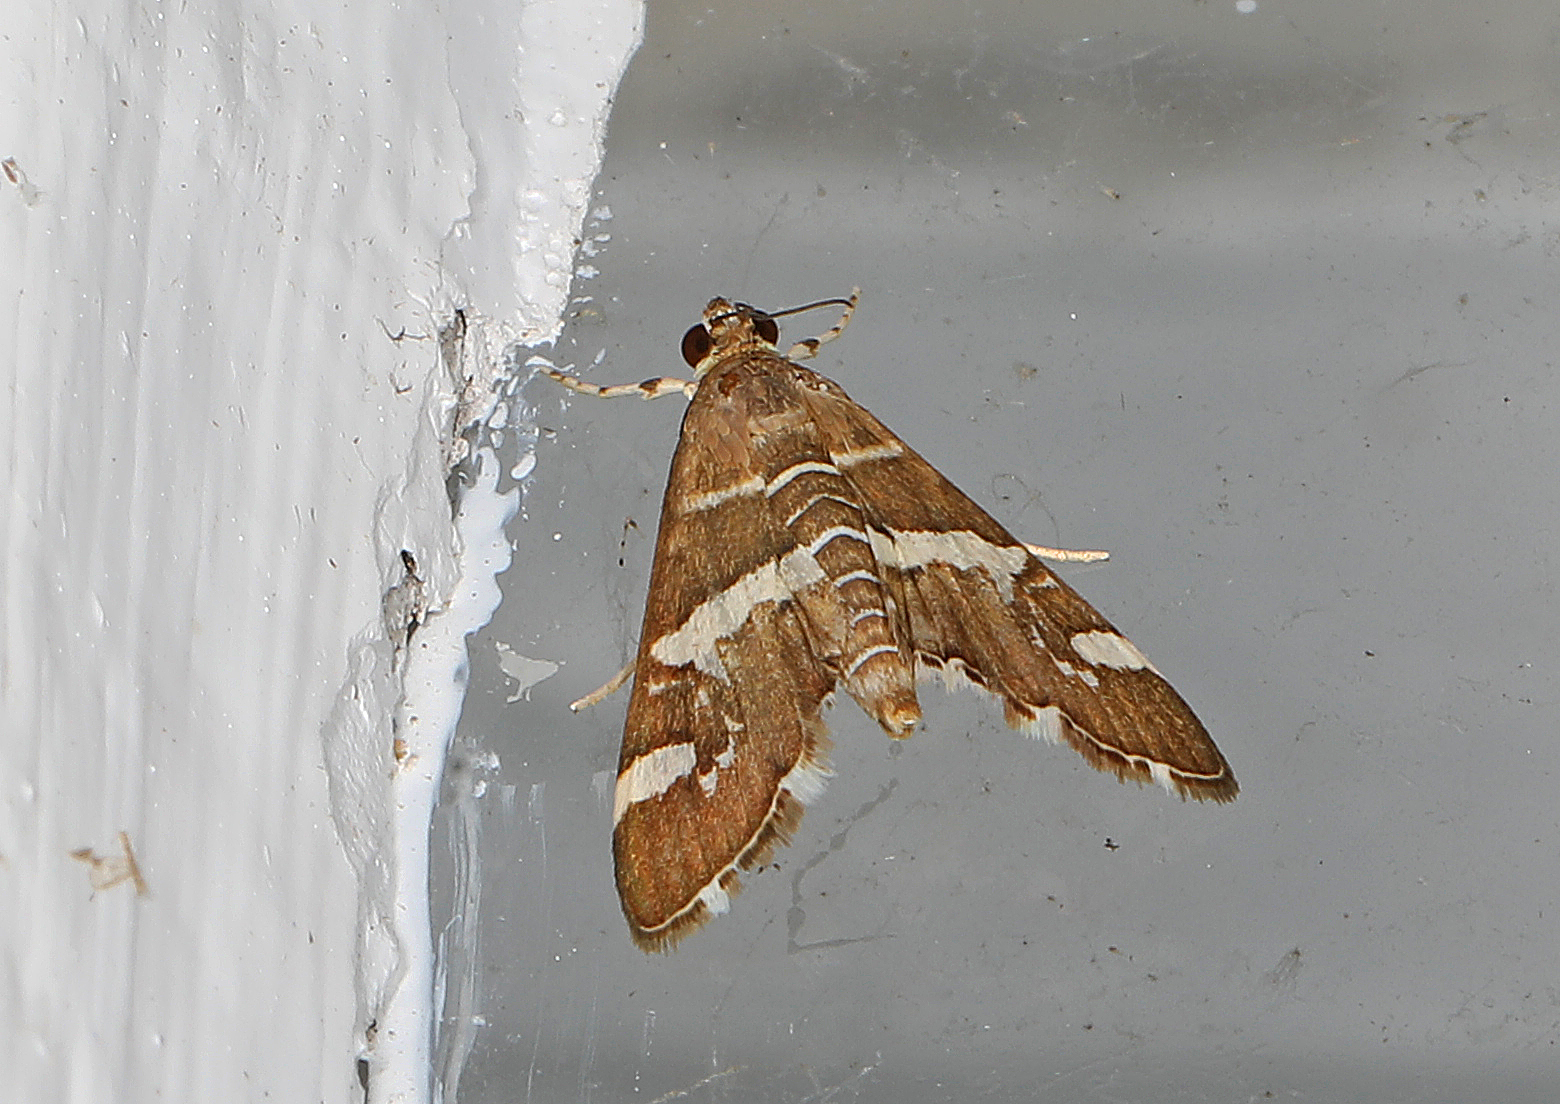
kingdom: Animalia
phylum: Arthropoda
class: Insecta
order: Lepidoptera
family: Crambidae
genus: Spoladea
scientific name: Spoladea recurvalis
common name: Beet webworm moth
